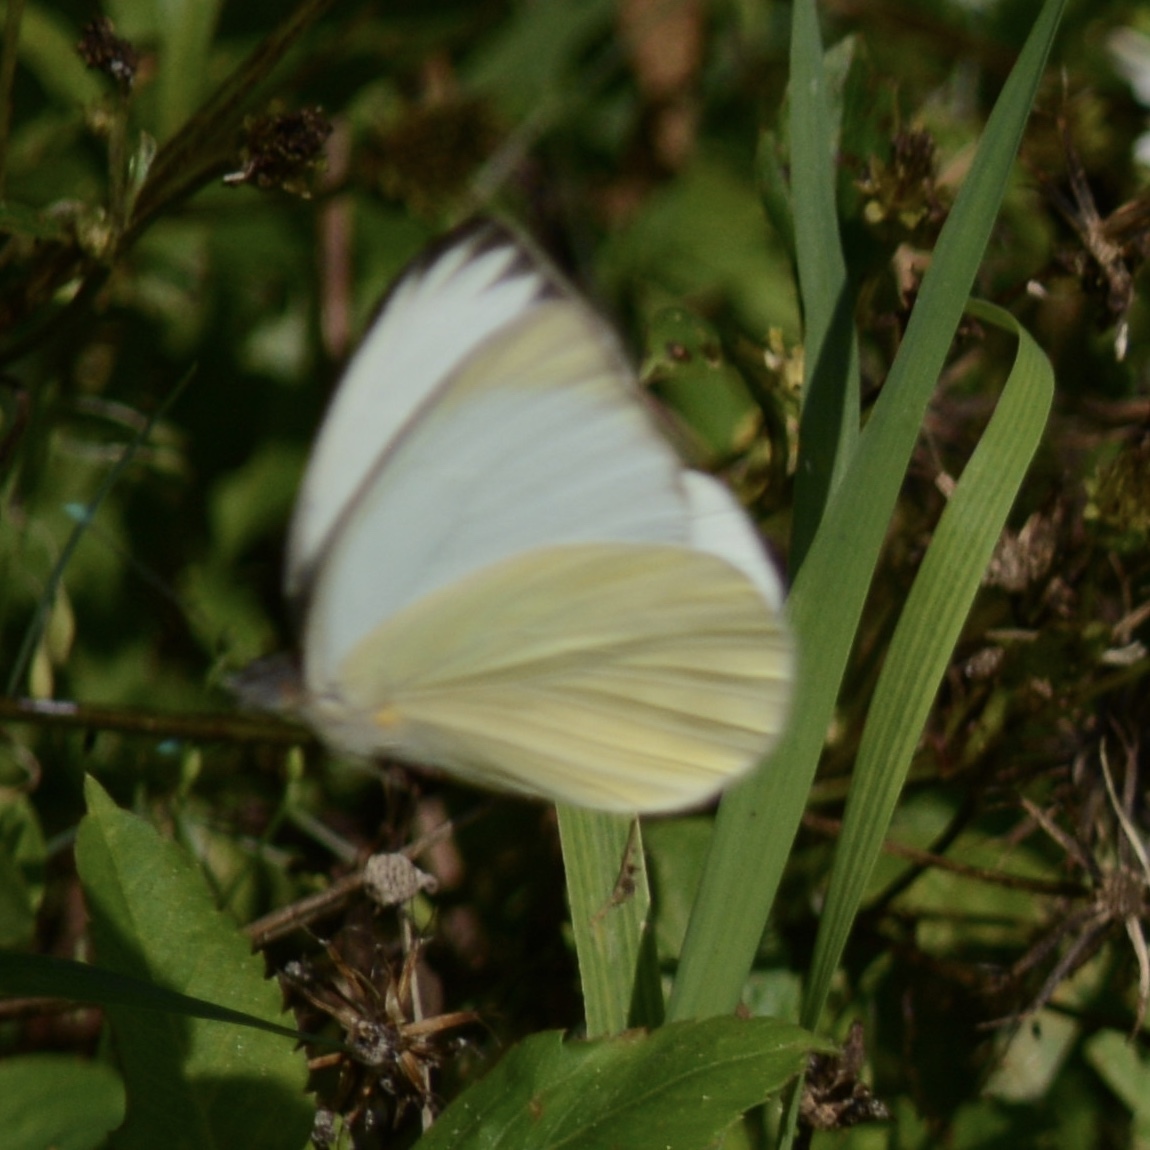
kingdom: Animalia
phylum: Arthropoda
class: Insecta
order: Lepidoptera
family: Pieridae
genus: Ascia
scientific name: Ascia monuste
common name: Great southern white
